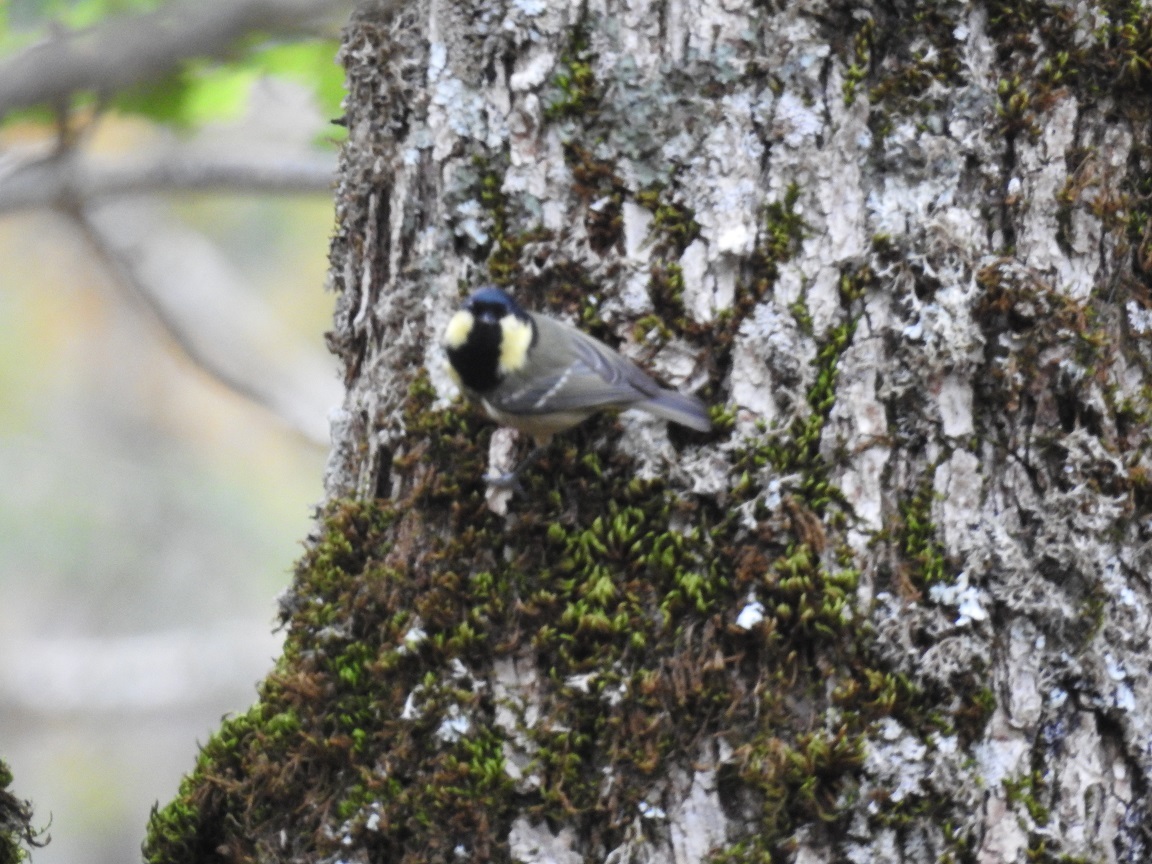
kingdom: Animalia
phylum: Chordata
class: Aves
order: Passeriformes
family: Paridae
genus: Periparus
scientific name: Periparus ater
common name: Coal tit
